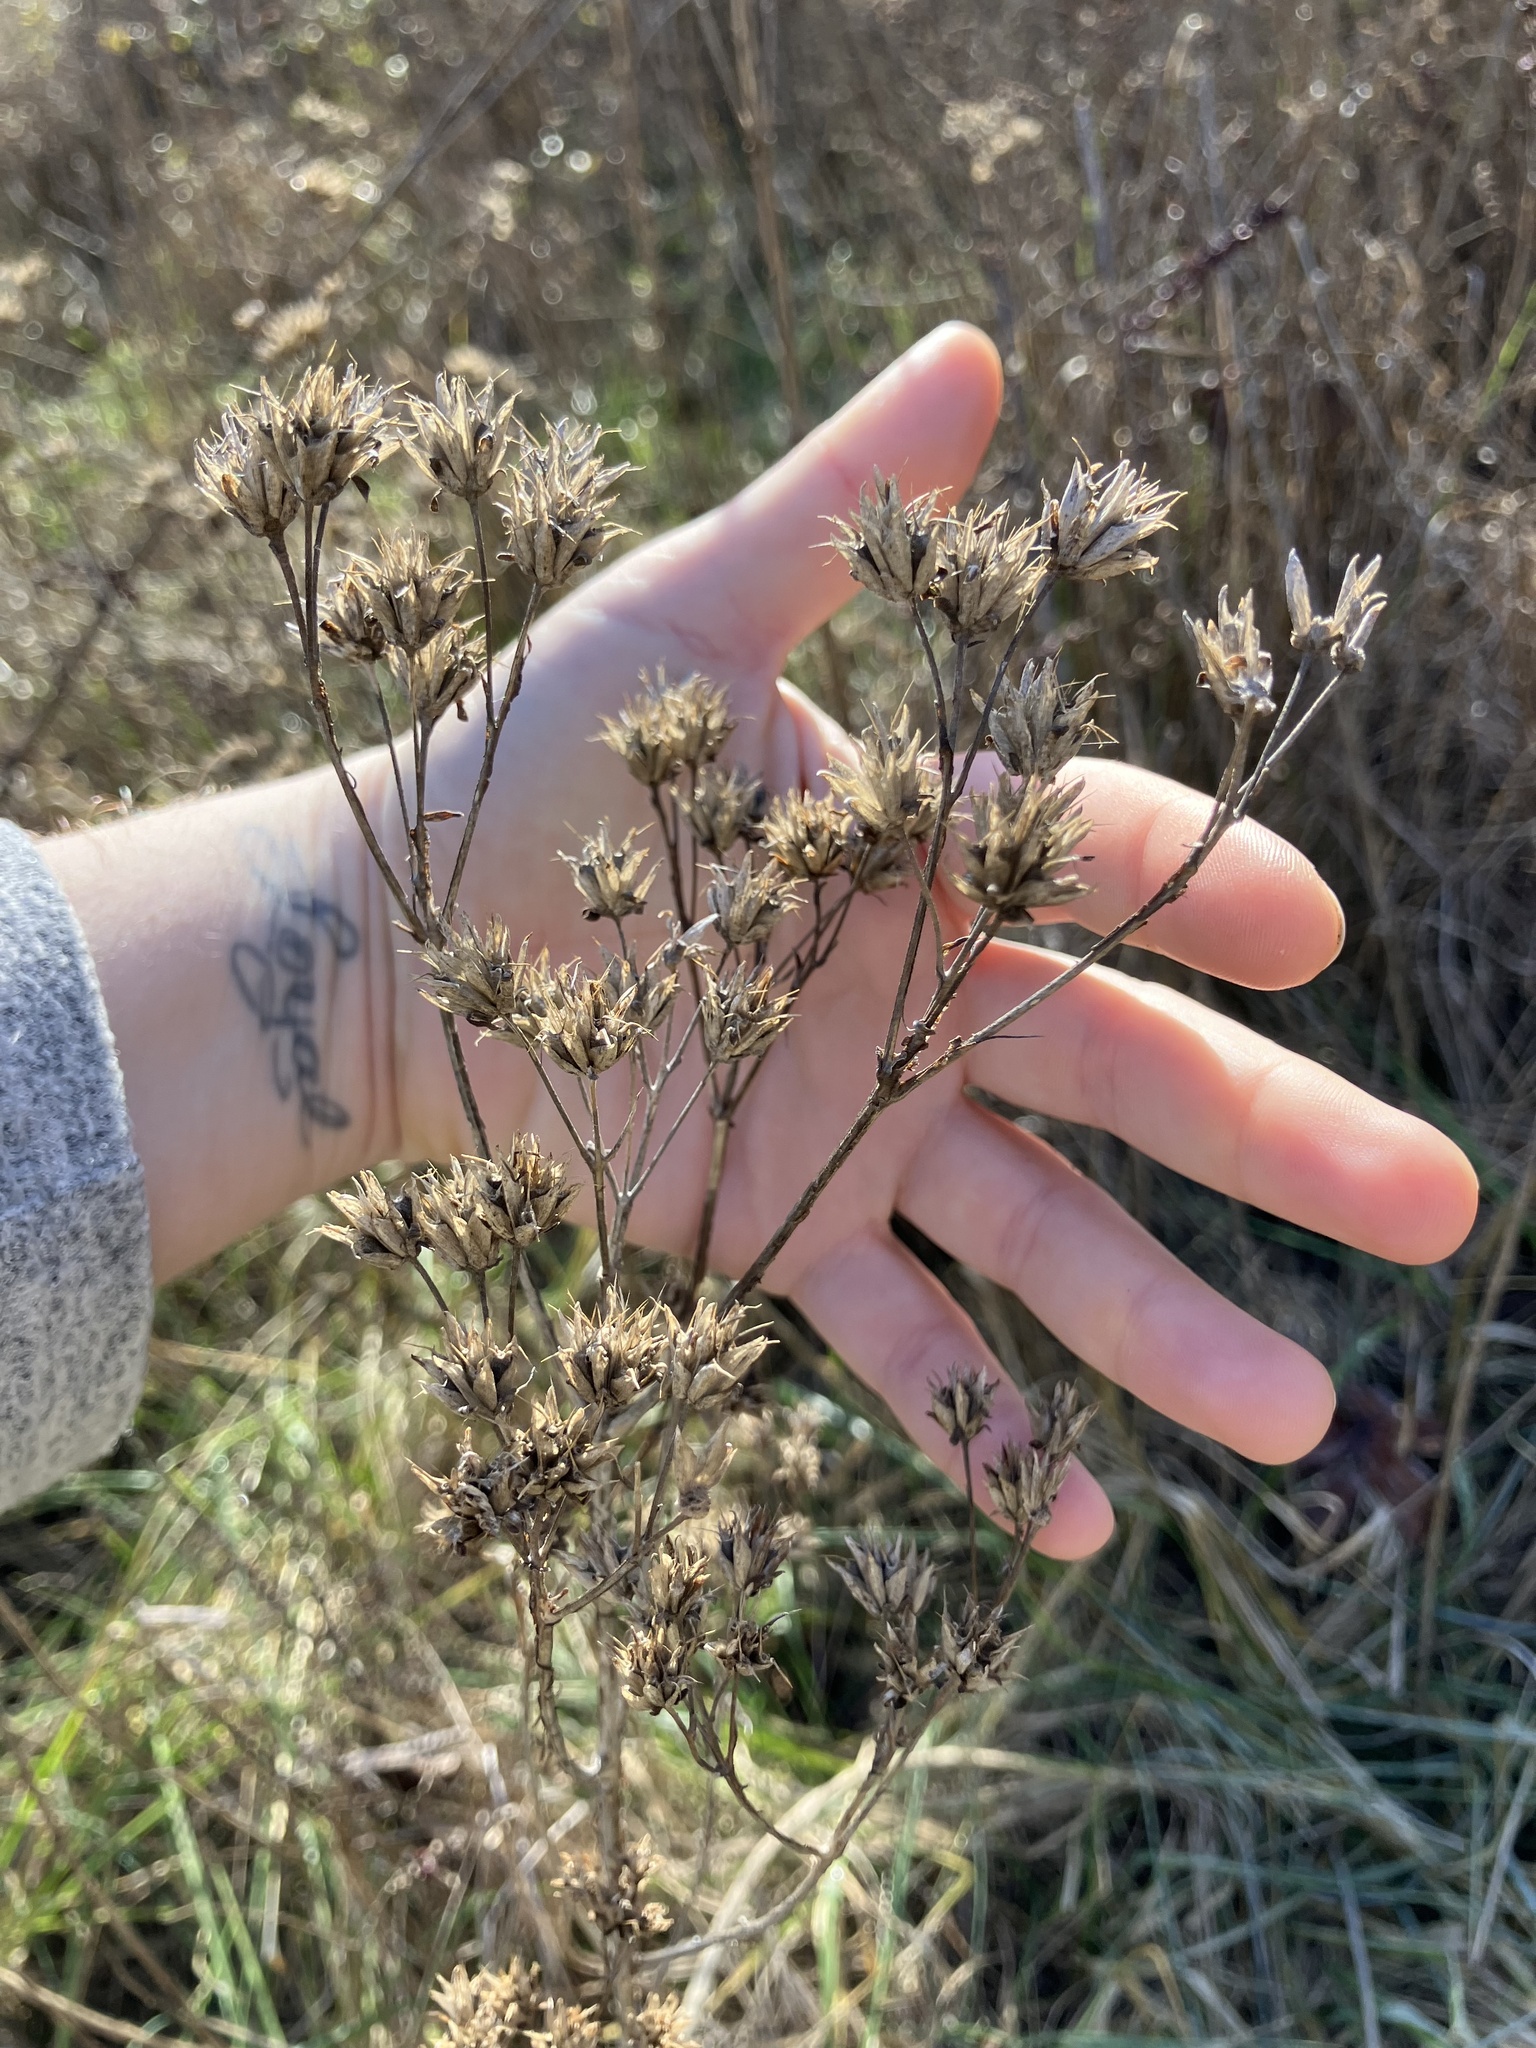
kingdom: Plantae
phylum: Tracheophyta
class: Magnoliopsida
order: Asterales
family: Asteraceae
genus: Verbesina
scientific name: Verbesina occidentalis
